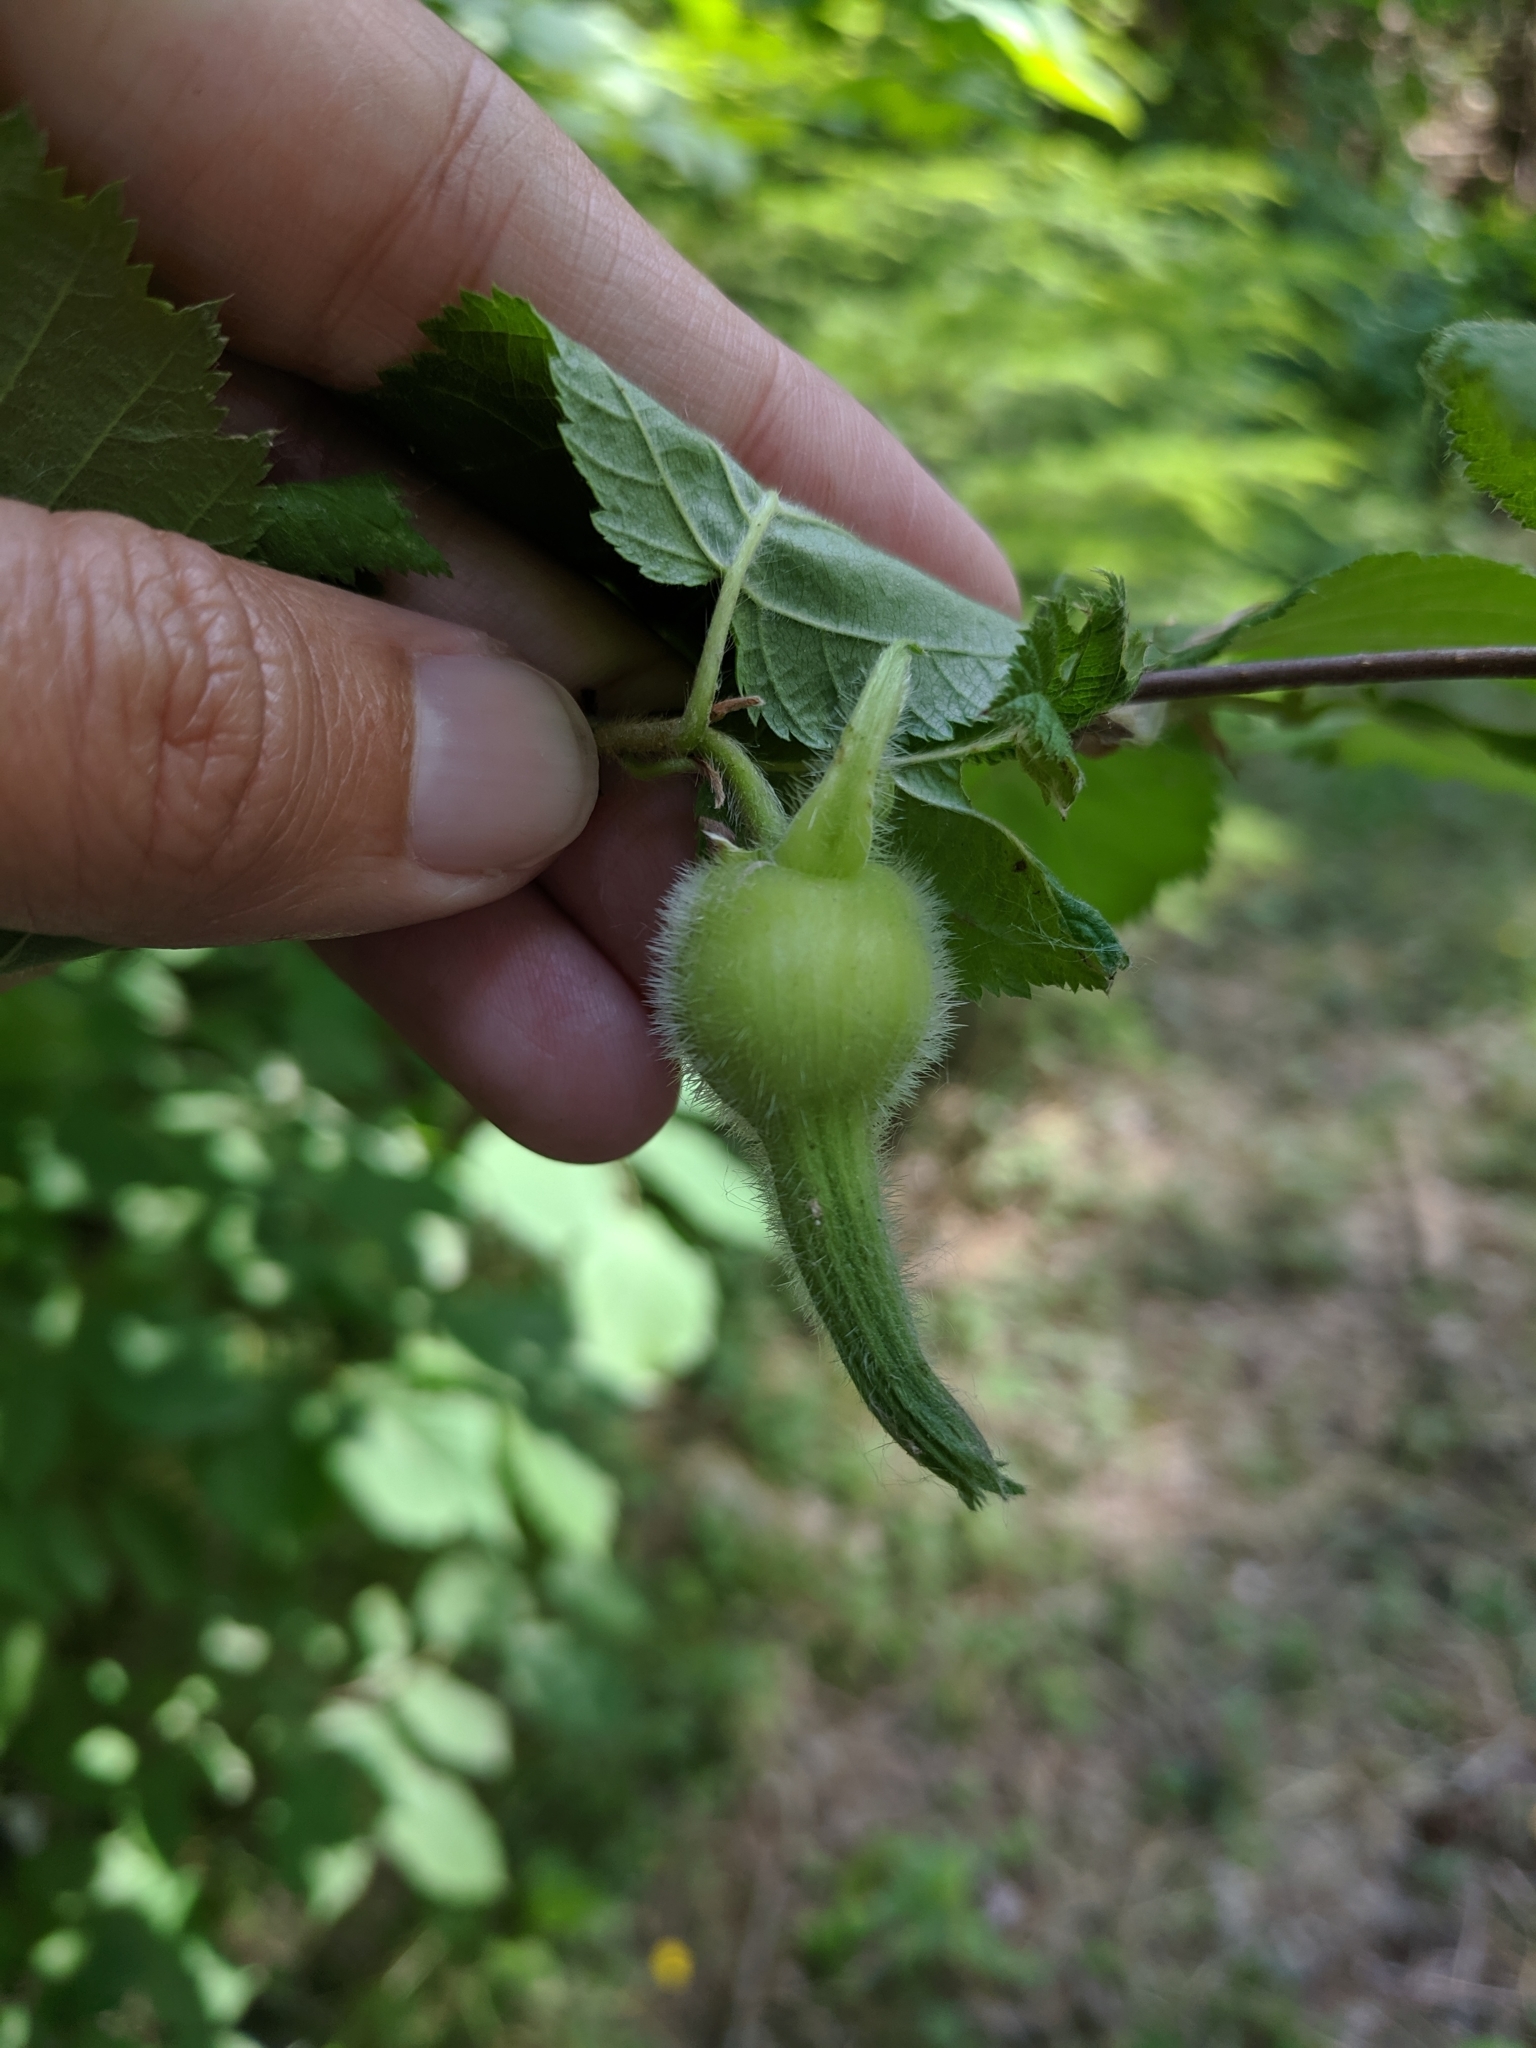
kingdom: Plantae
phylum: Tracheophyta
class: Magnoliopsida
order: Fagales
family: Betulaceae
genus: Corylus
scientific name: Corylus cornuta
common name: Beaked hazel
